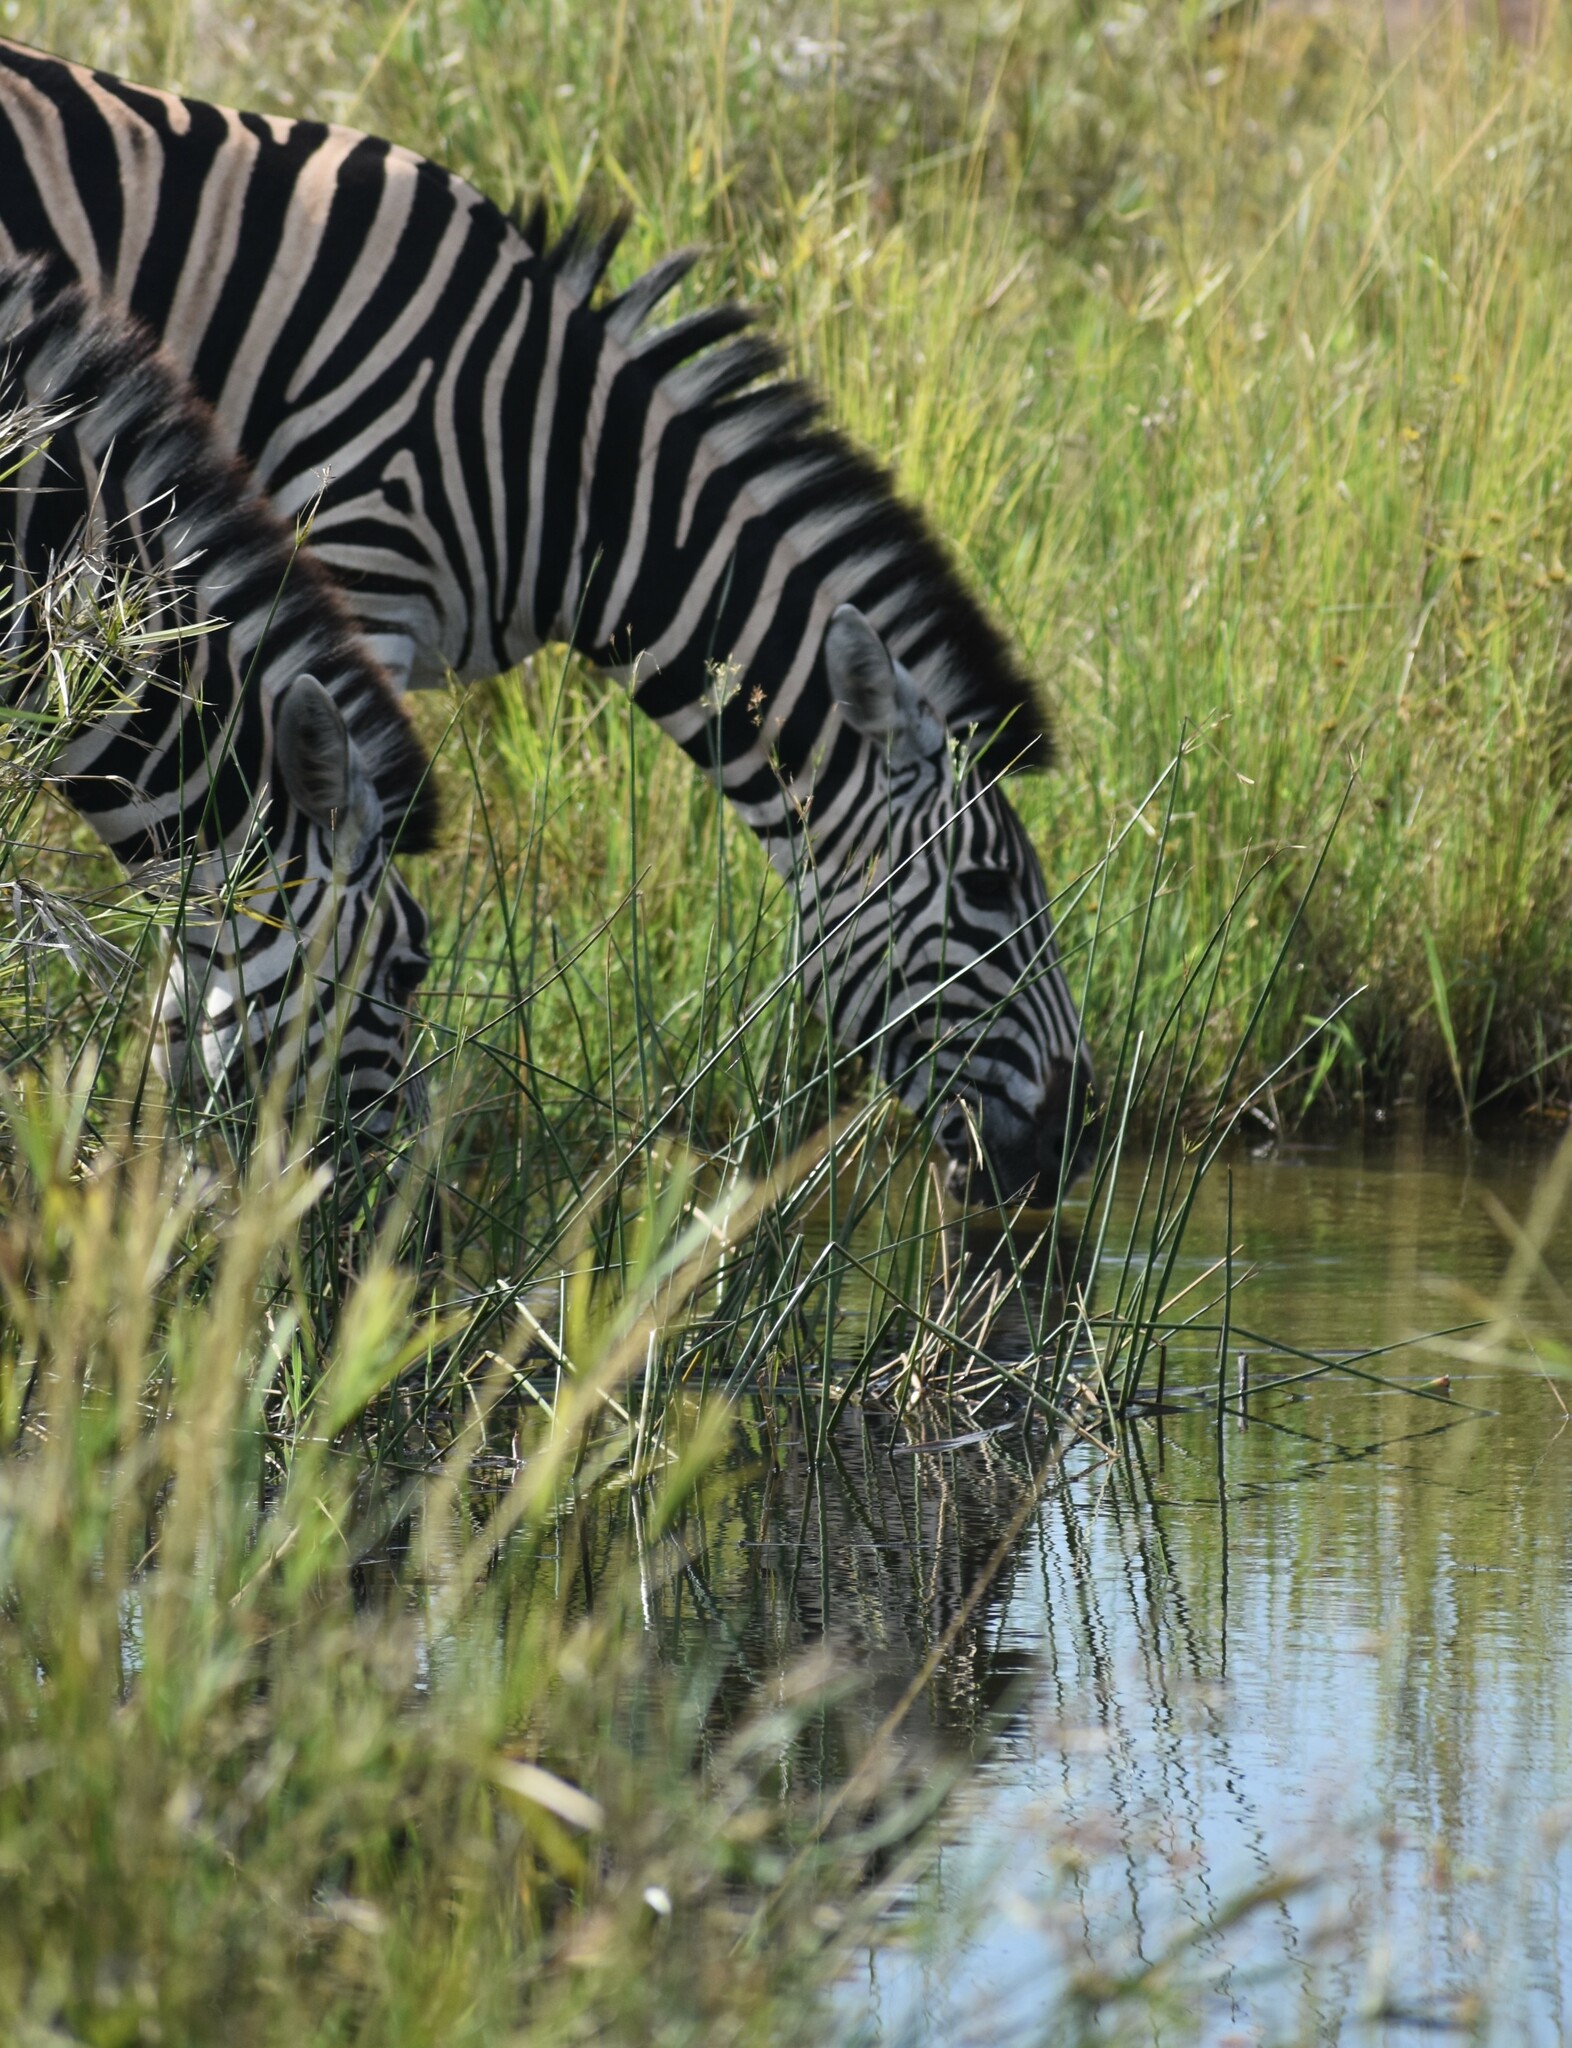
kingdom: Animalia
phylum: Chordata
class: Mammalia
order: Perissodactyla
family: Equidae
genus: Equus
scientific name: Equus quagga
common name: Plains zebra
